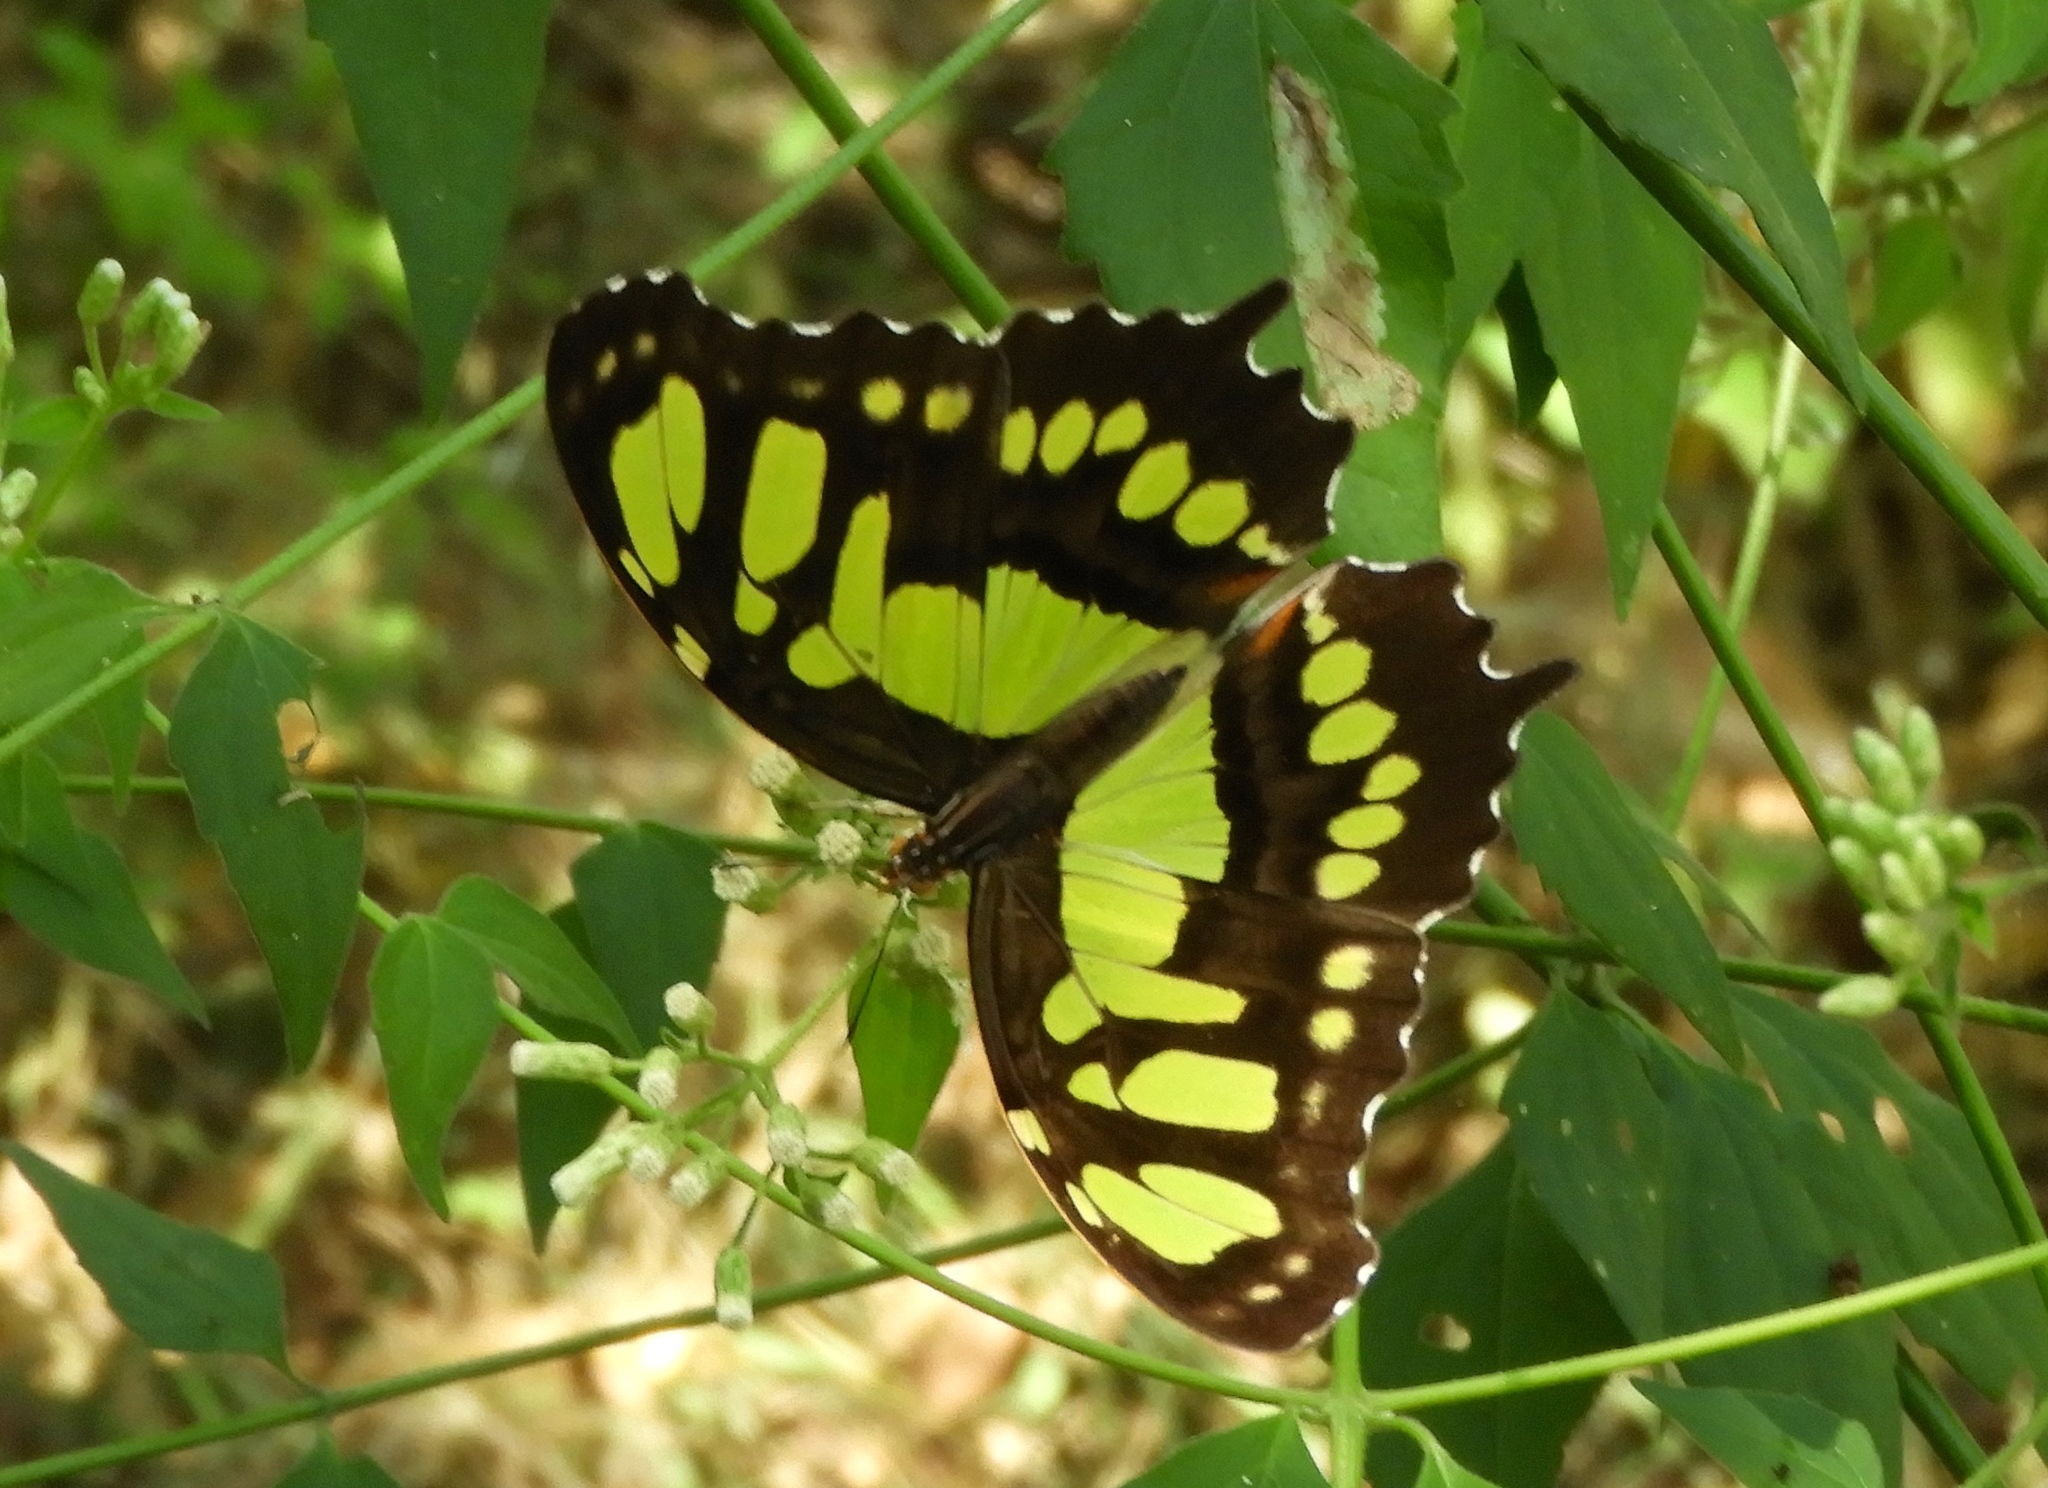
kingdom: Animalia
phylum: Arthropoda
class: Insecta
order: Lepidoptera
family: Nymphalidae
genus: Siproeta
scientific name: Siproeta stelenes
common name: Malachite
